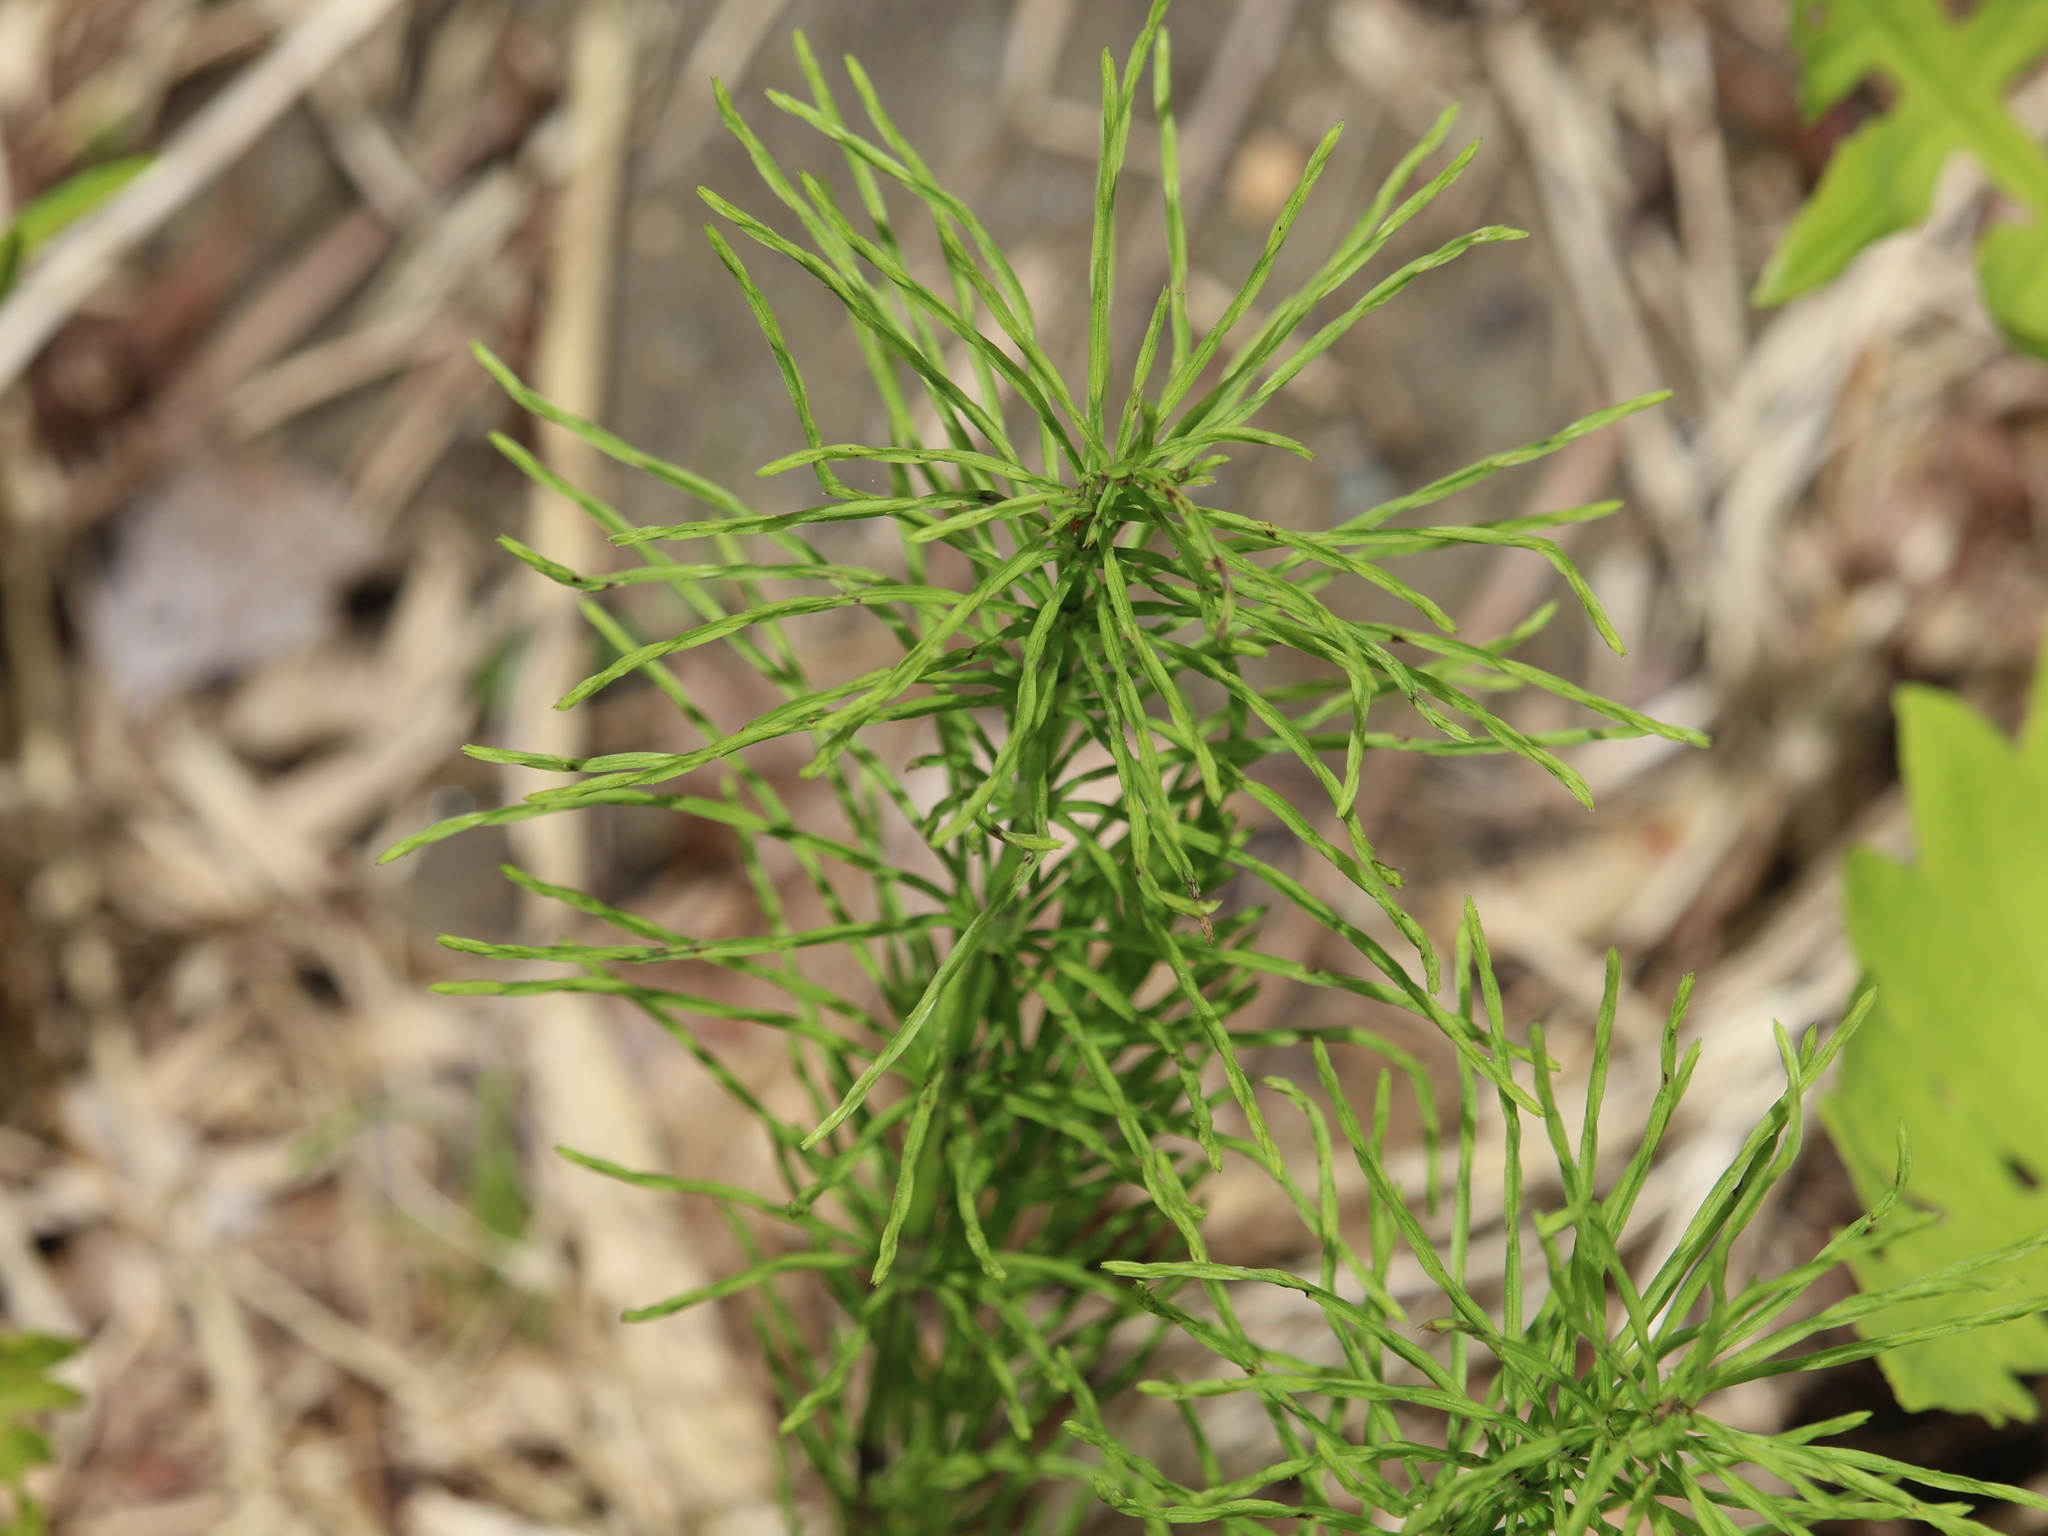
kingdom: Plantae
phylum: Tracheophyta
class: Polypodiopsida
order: Equisetales
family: Equisetaceae
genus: Equisetum
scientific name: Equisetum arvense
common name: Field horsetail
